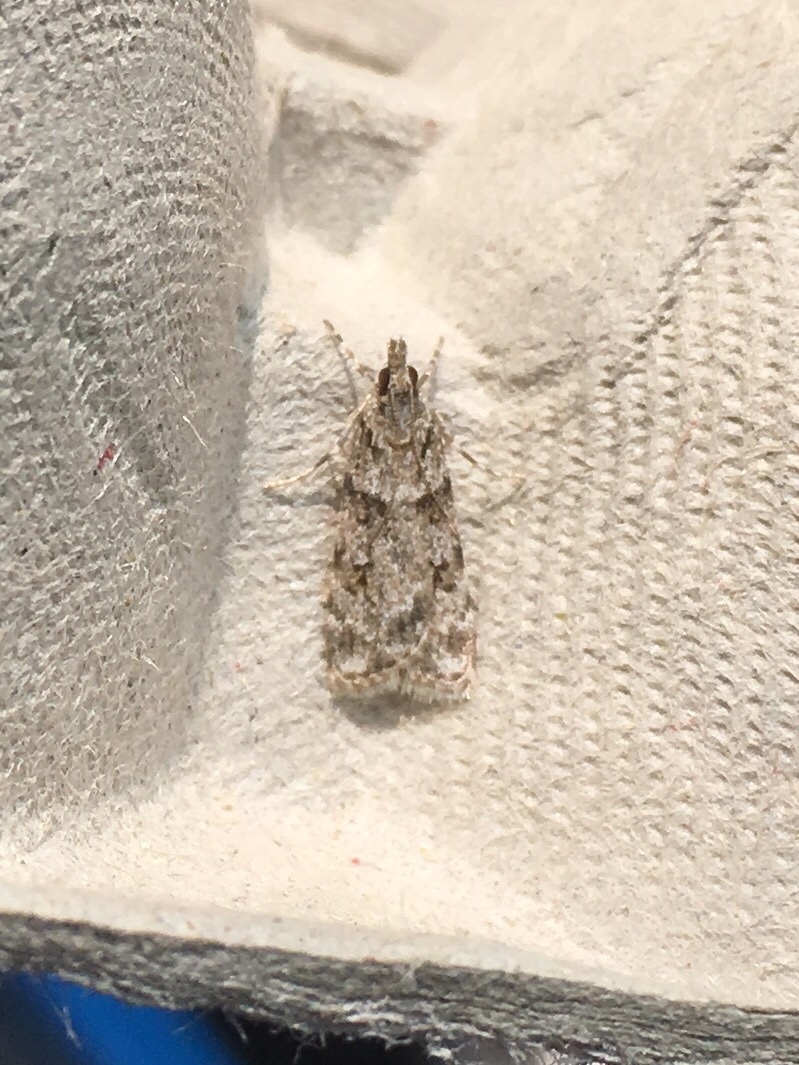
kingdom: Animalia
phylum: Arthropoda
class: Insecta
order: Lepidoptera
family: Crambidae
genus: Scoparia
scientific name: Scoparia biplagialis
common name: Double-striped scoparia moth
